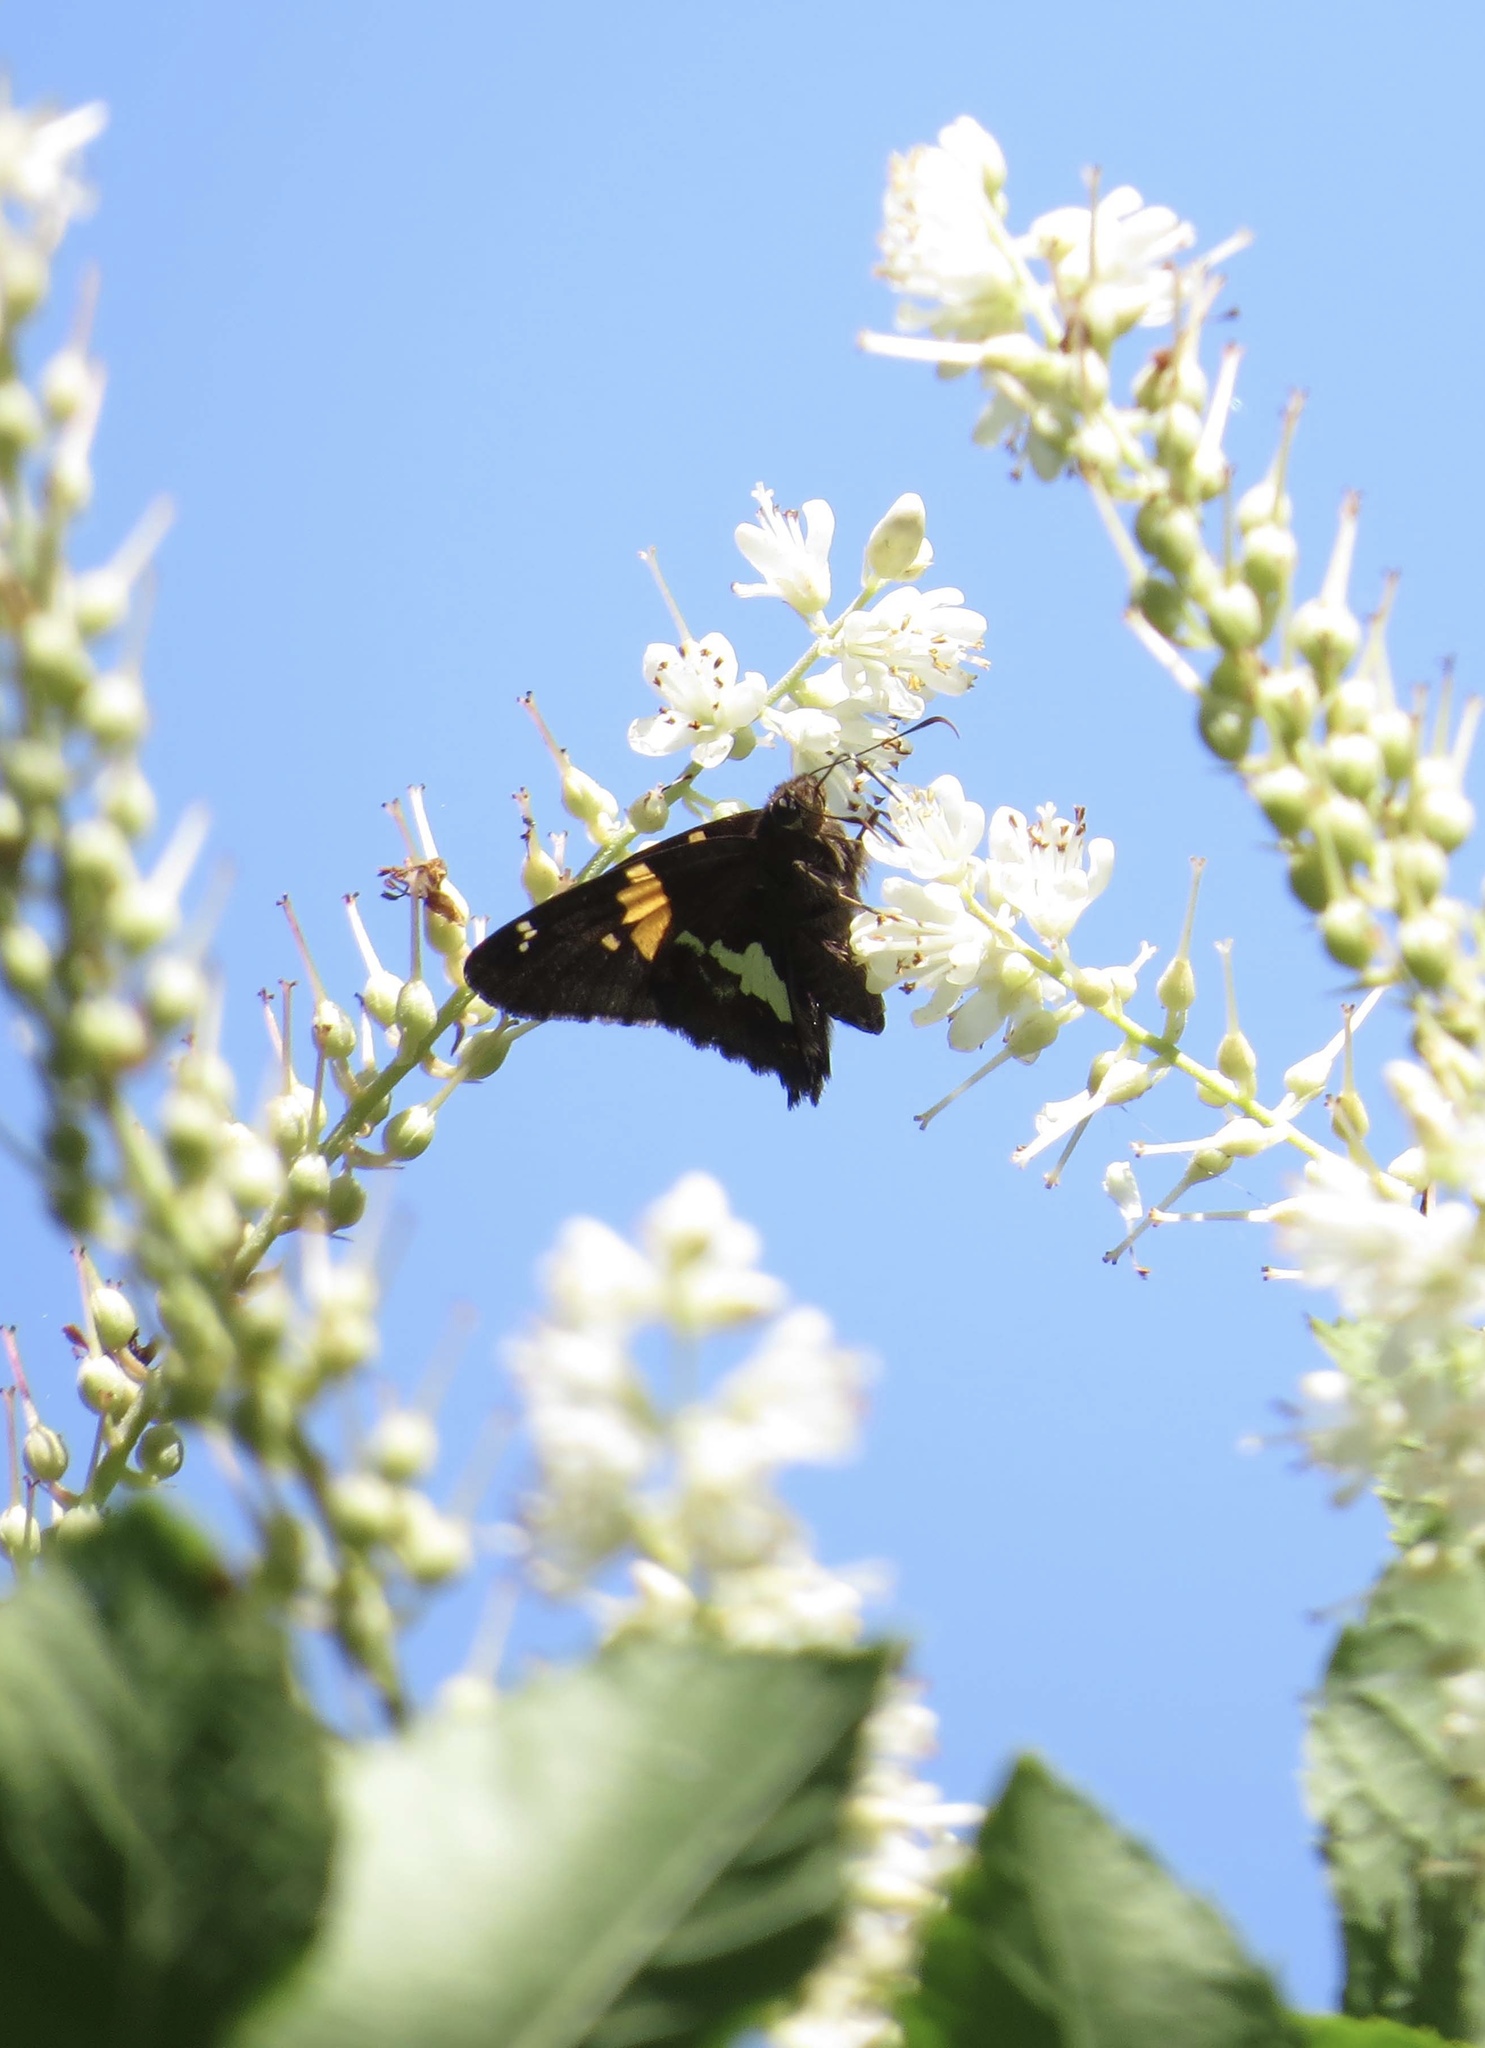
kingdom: Animalia
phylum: Arthropoda
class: Insecta
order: Lepidoptera
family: Hesperiidae
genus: Epargyreus
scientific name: Epargyreus clarus
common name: Silver-spotted skipper
